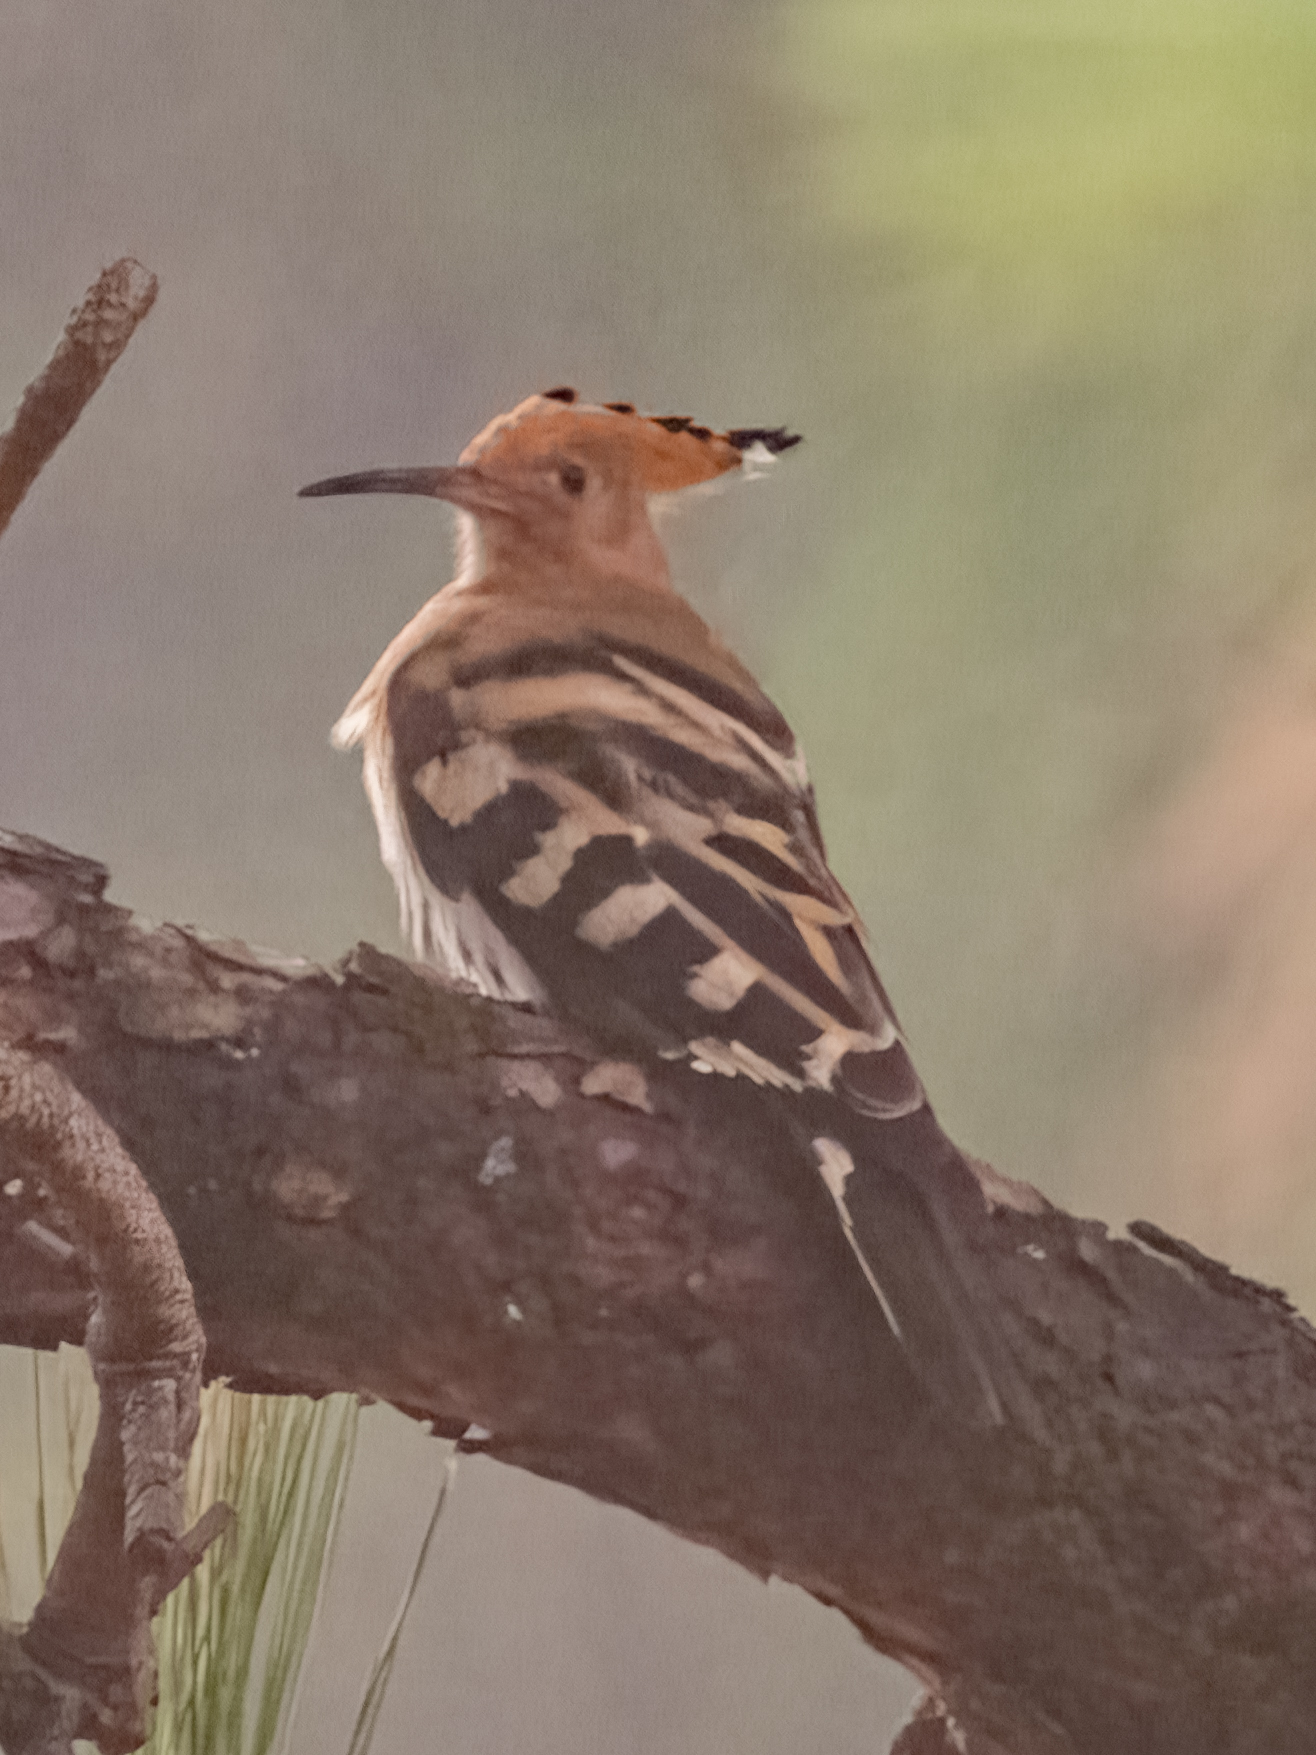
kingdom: Animalia
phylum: Chordata
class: Aves
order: Bucerotiformes
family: Upupidae
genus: Upupa
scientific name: Upupa epops
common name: Eurasian hoopoe
